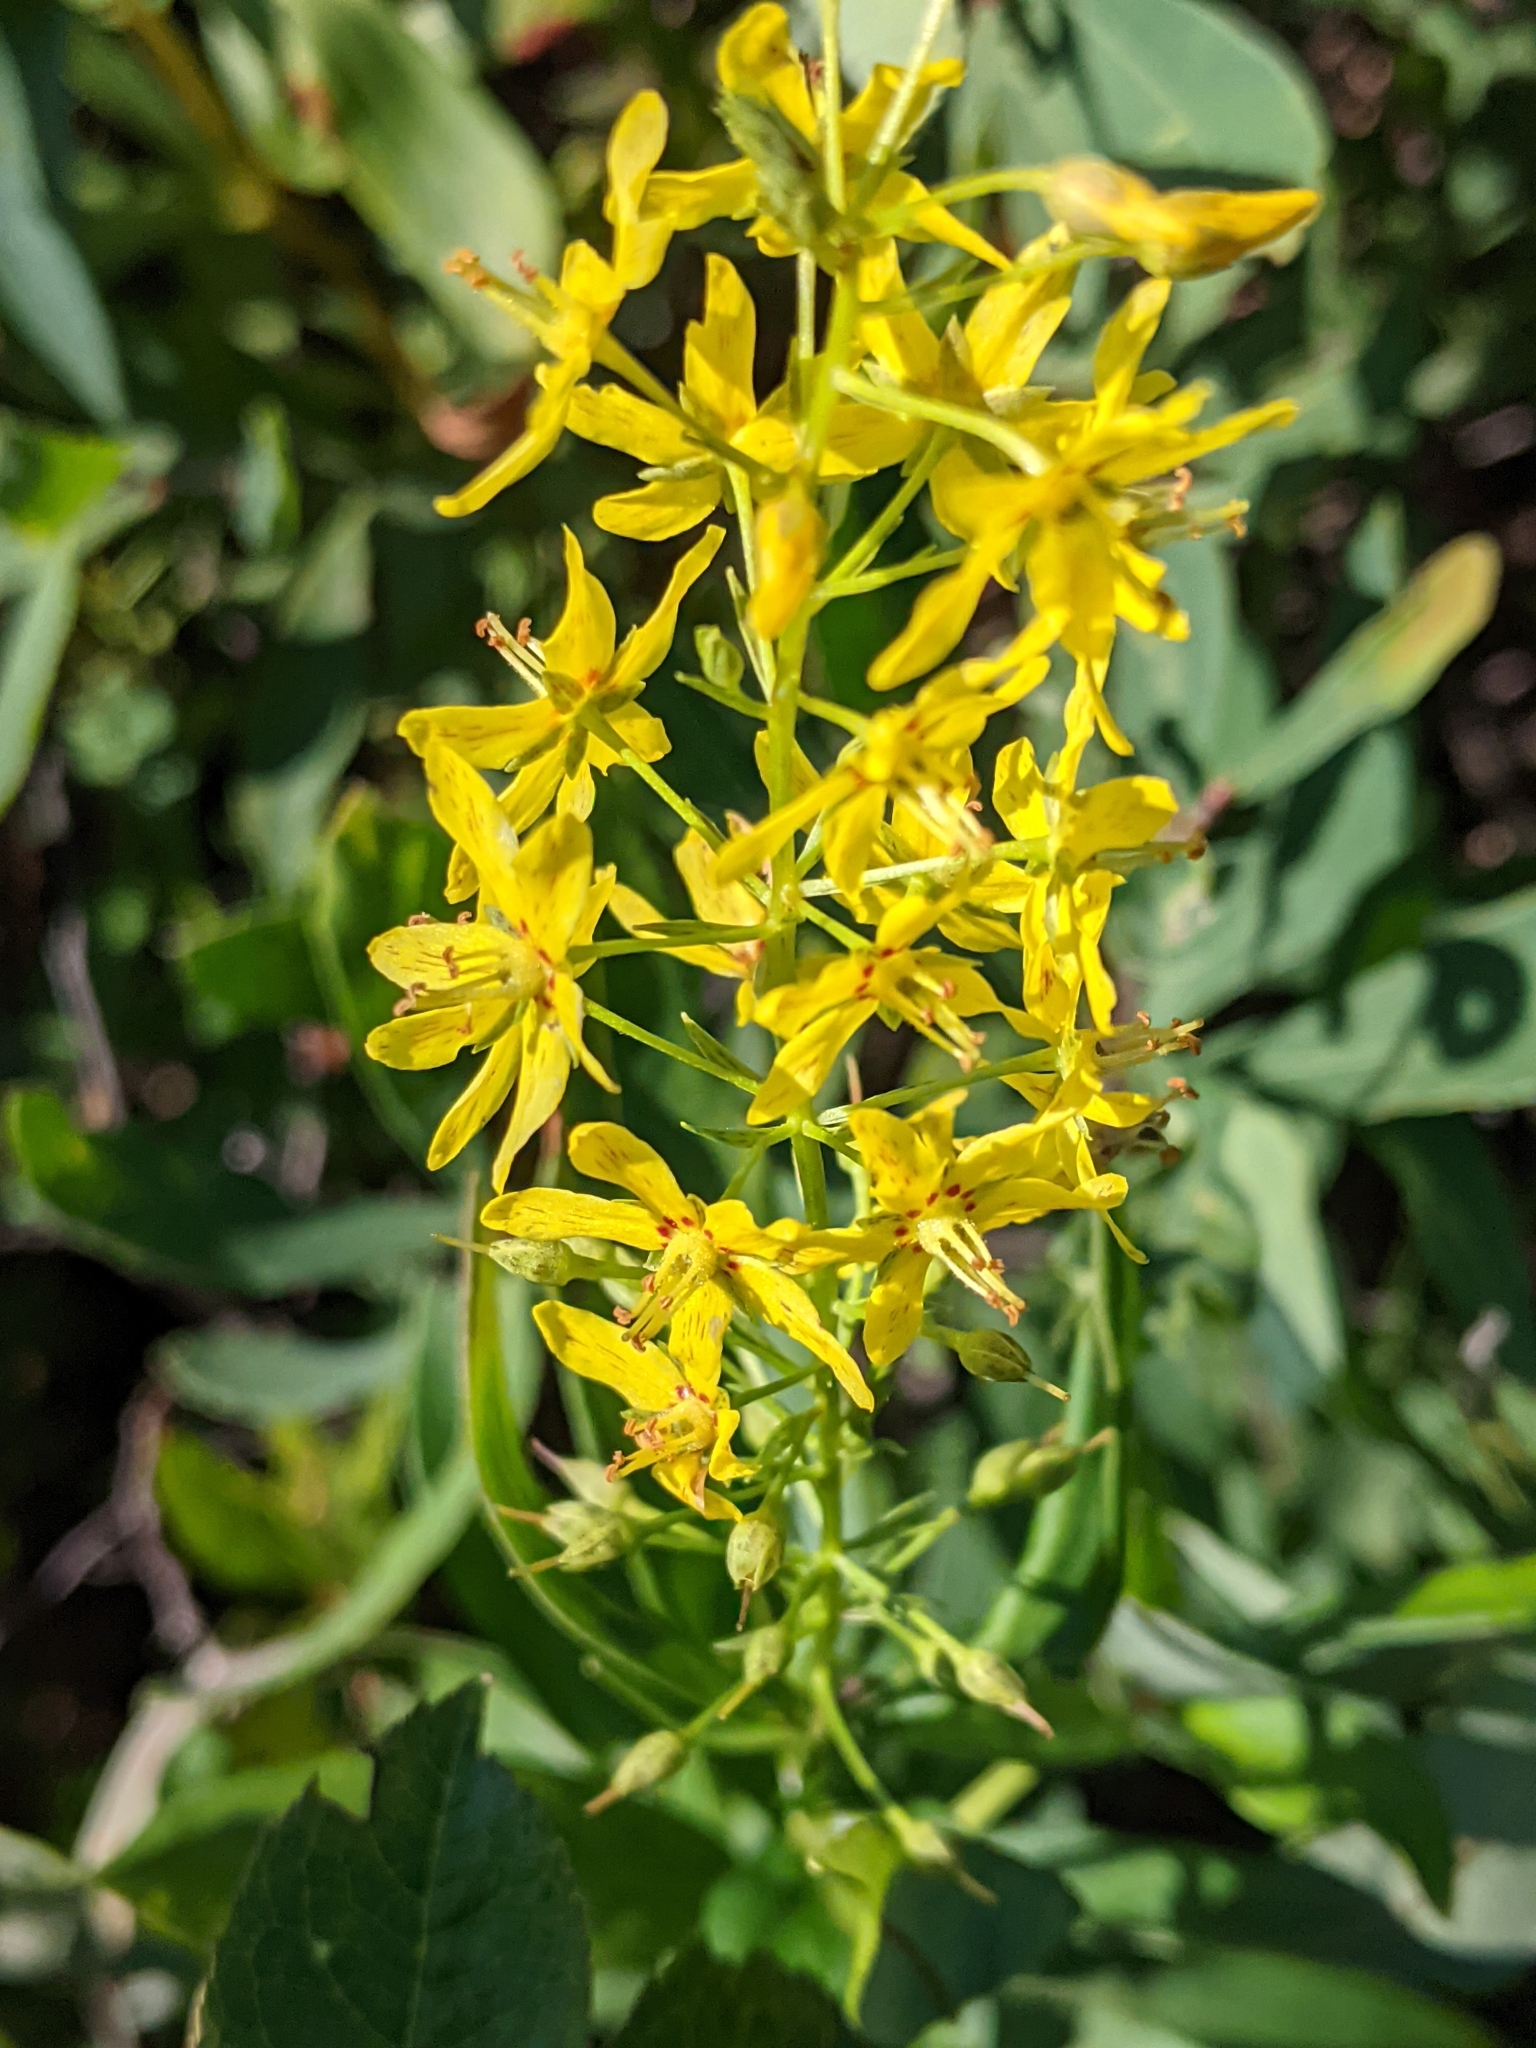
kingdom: Plantae
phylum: Tracheophyta
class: Magnoliopsida
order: Ericales
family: Primulaceae
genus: Lysimachia
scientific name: Lysimachia terrestris
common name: Lake loosestrife
